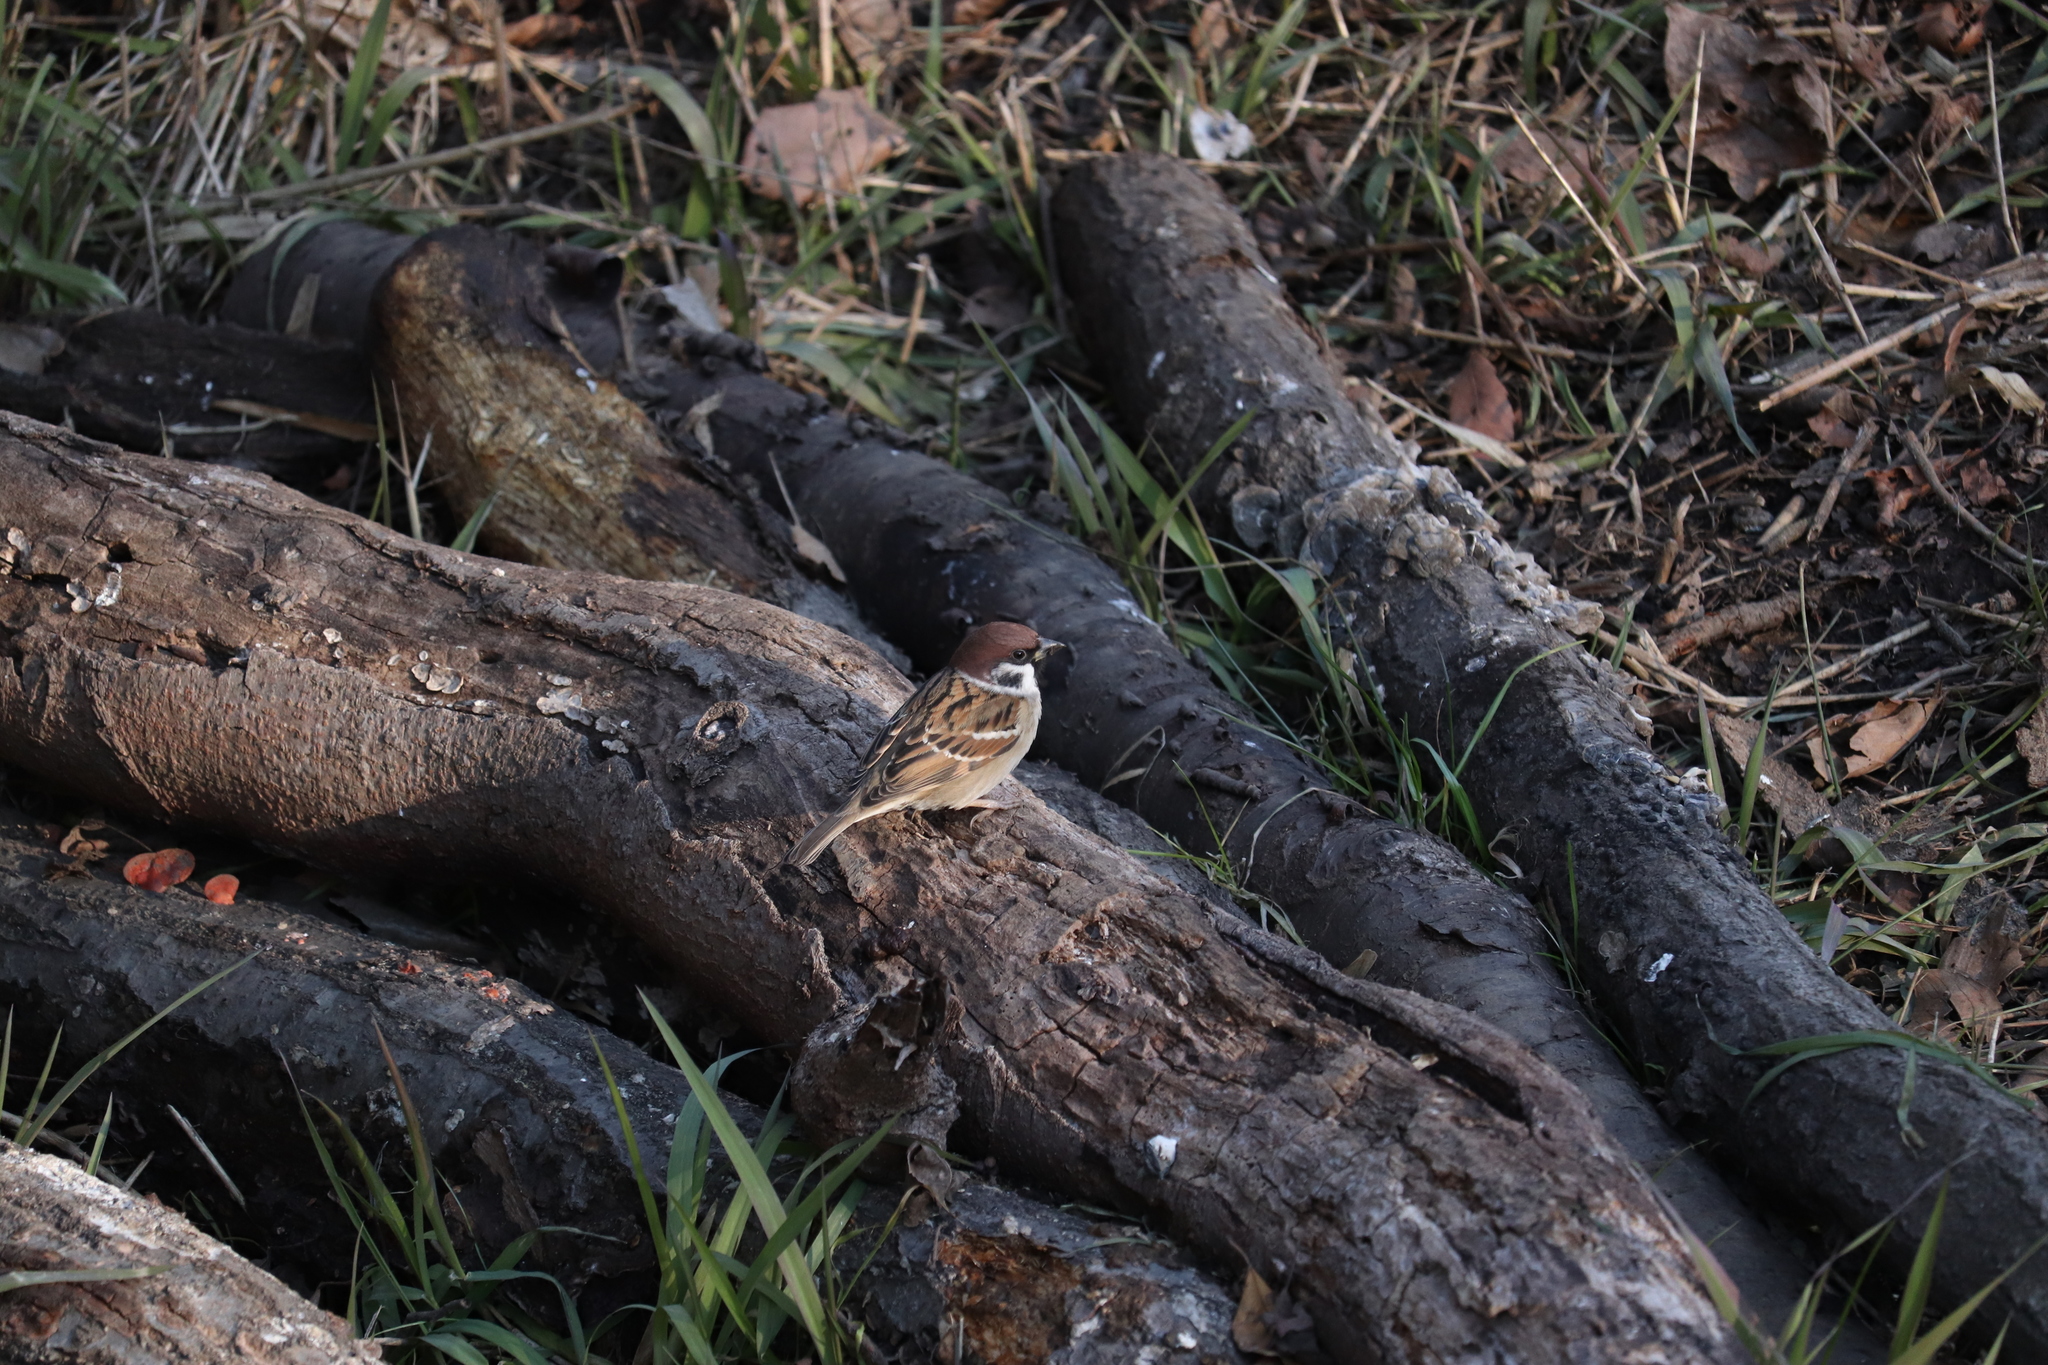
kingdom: Animalia
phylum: Chordata
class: Aves
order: Passeriformes
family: Passeridae
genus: Passer
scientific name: Passer montanus
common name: Eurasian tree sparrow
